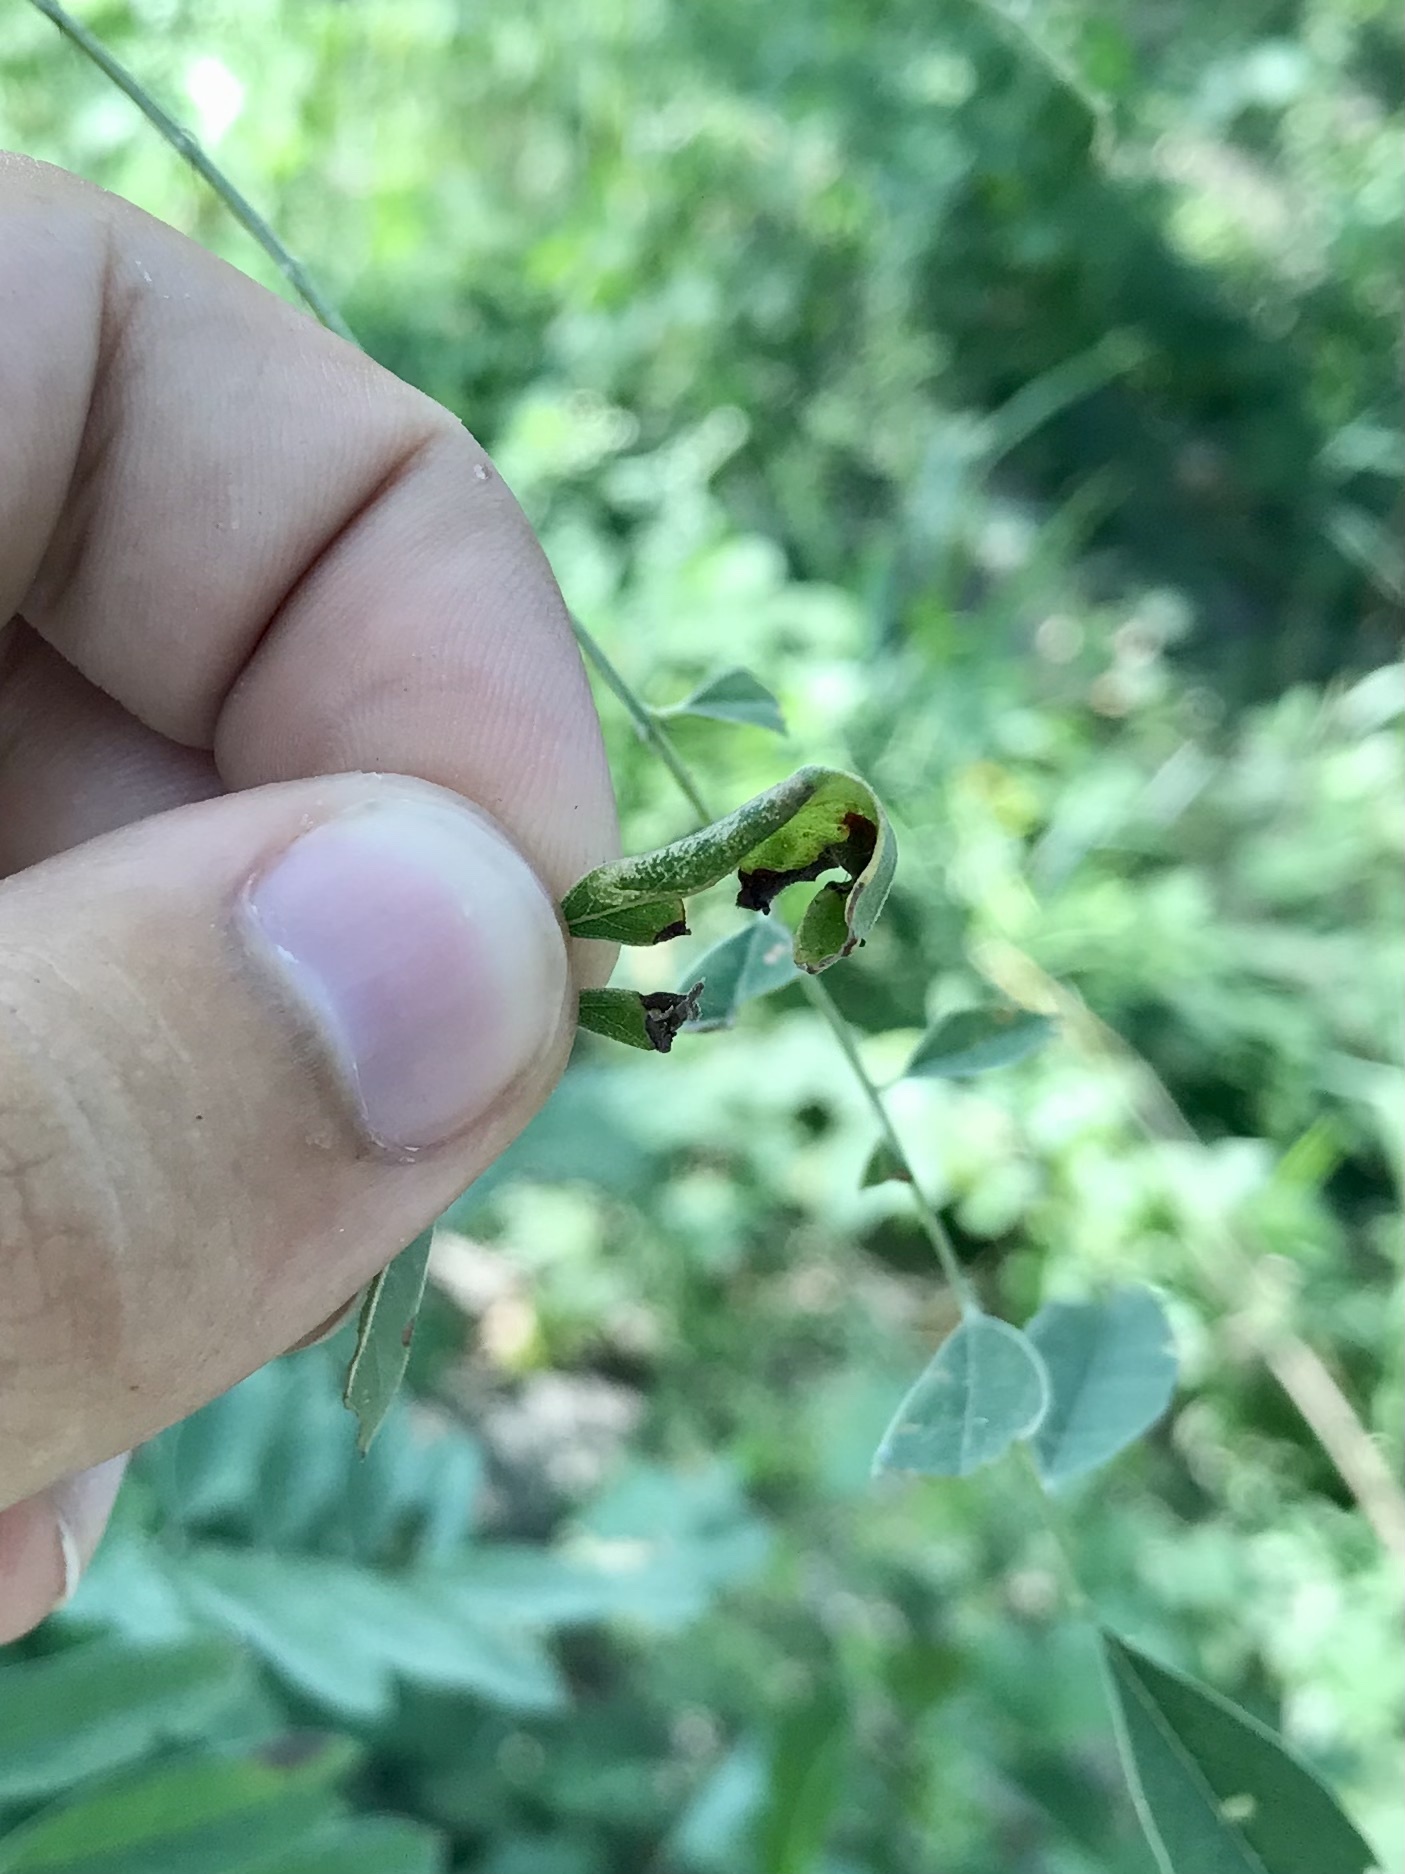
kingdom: Animalia
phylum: Arthropoda
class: Insecta
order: Lepidoptera
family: Gracillariidae
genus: Macrosaccus
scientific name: Macrosaccus uhlerella
